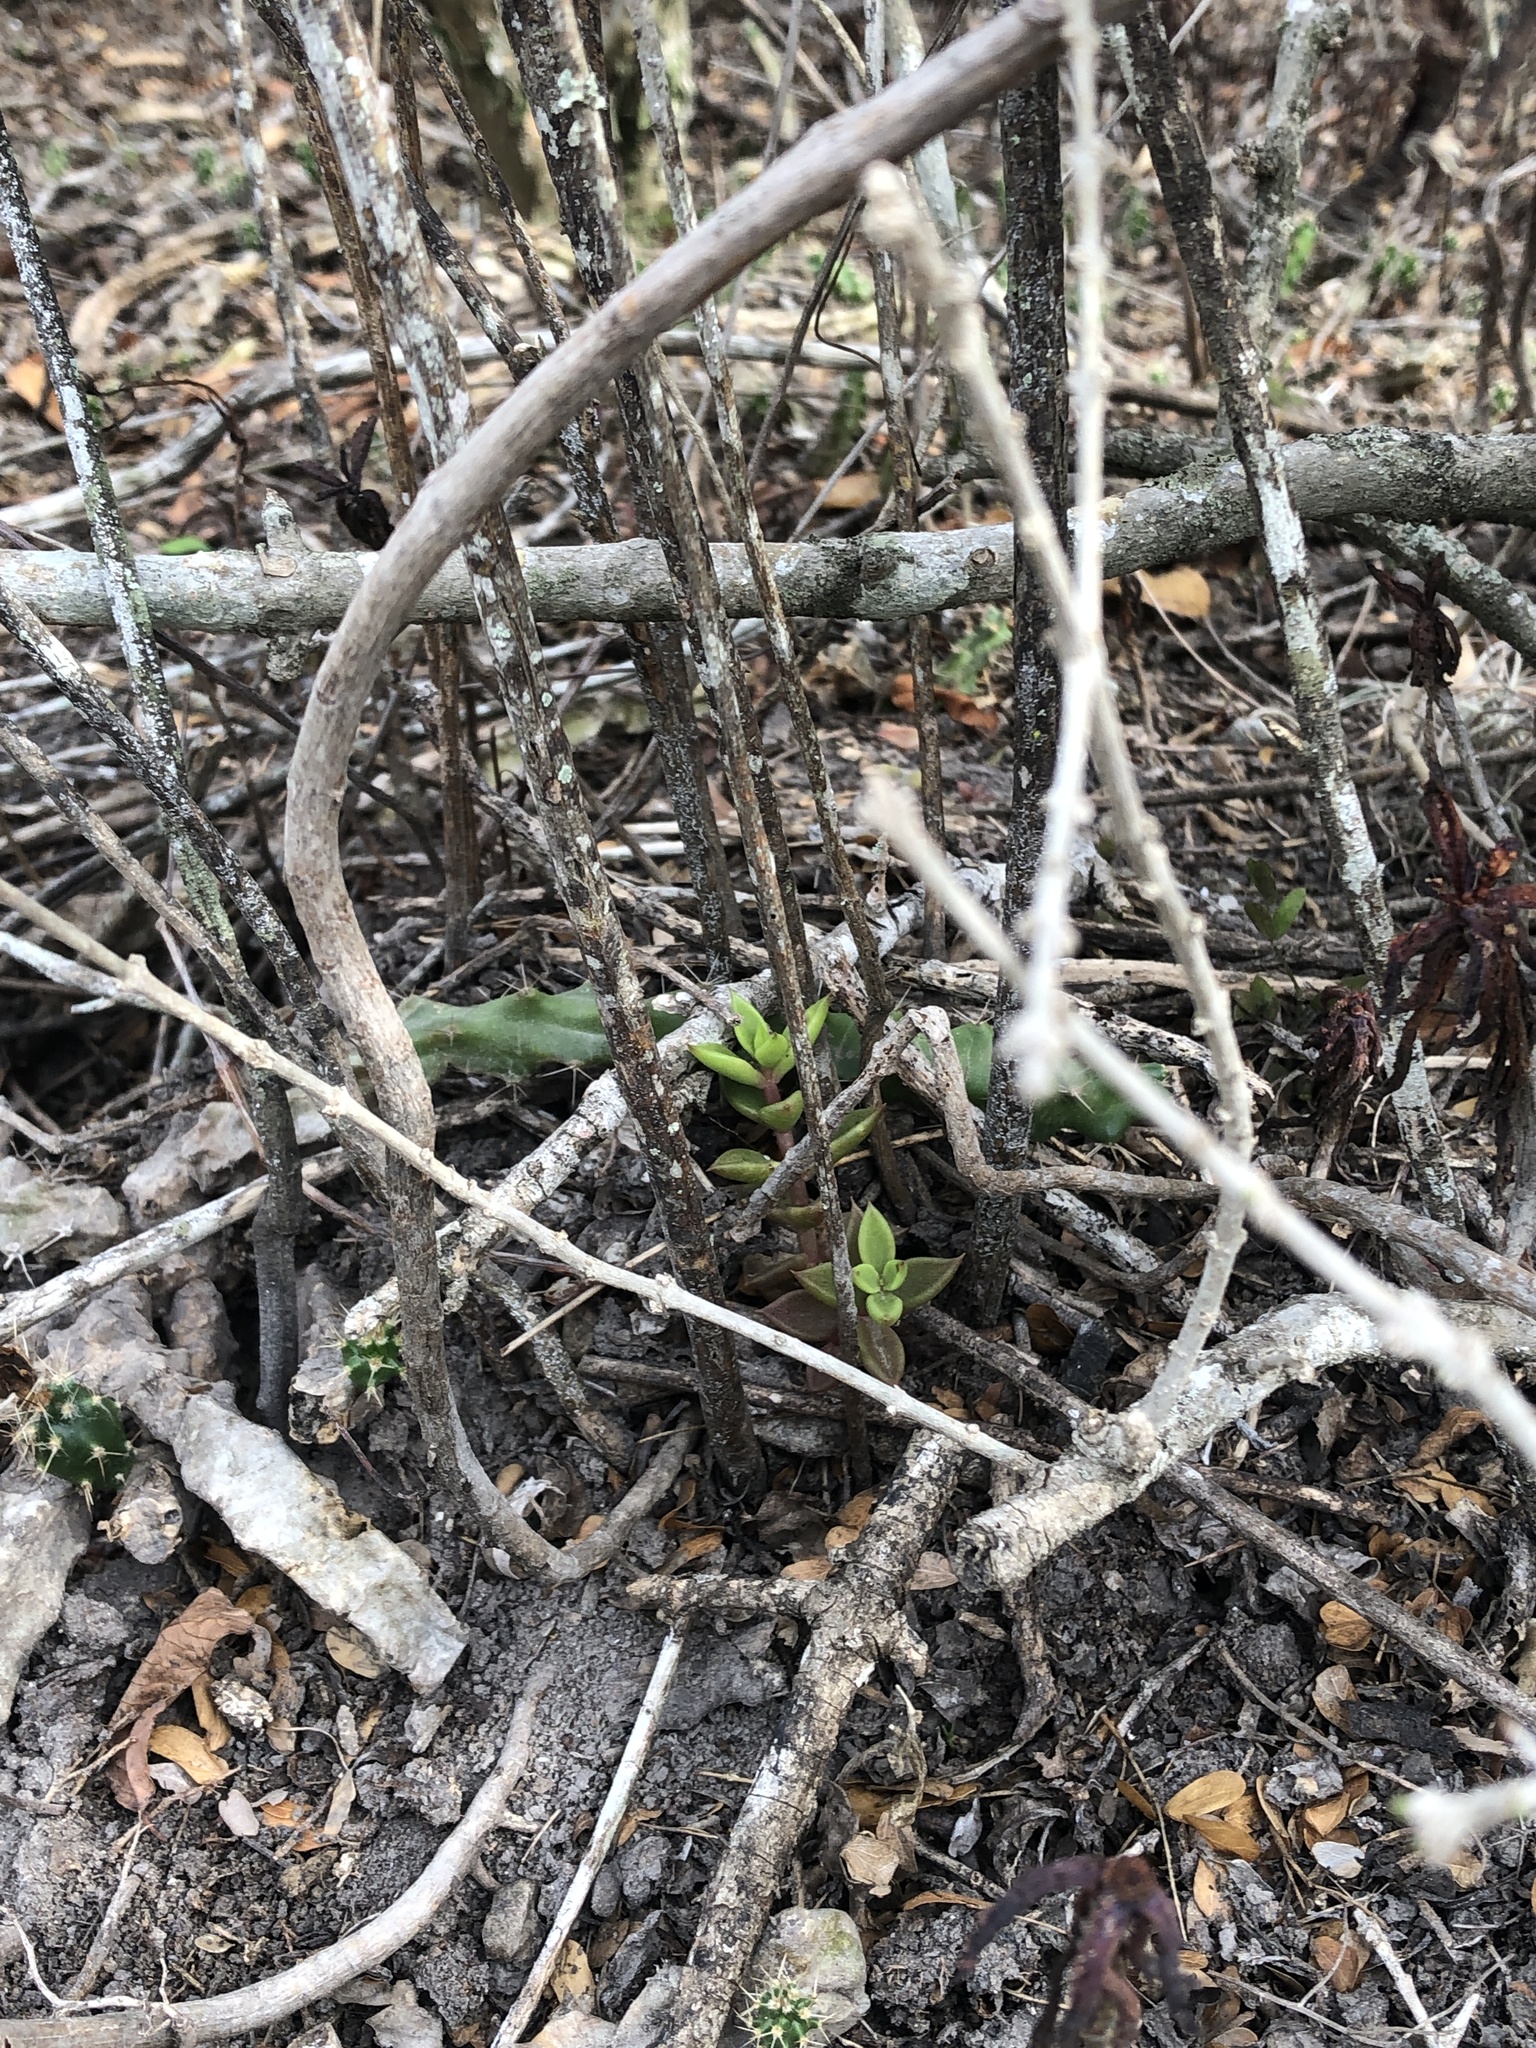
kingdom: Plantae
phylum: Tracheophyta
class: Magnoliopsida
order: Saxifragales
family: Crassulaceae
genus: Lenophyllum
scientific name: Lenophyllum texanum
